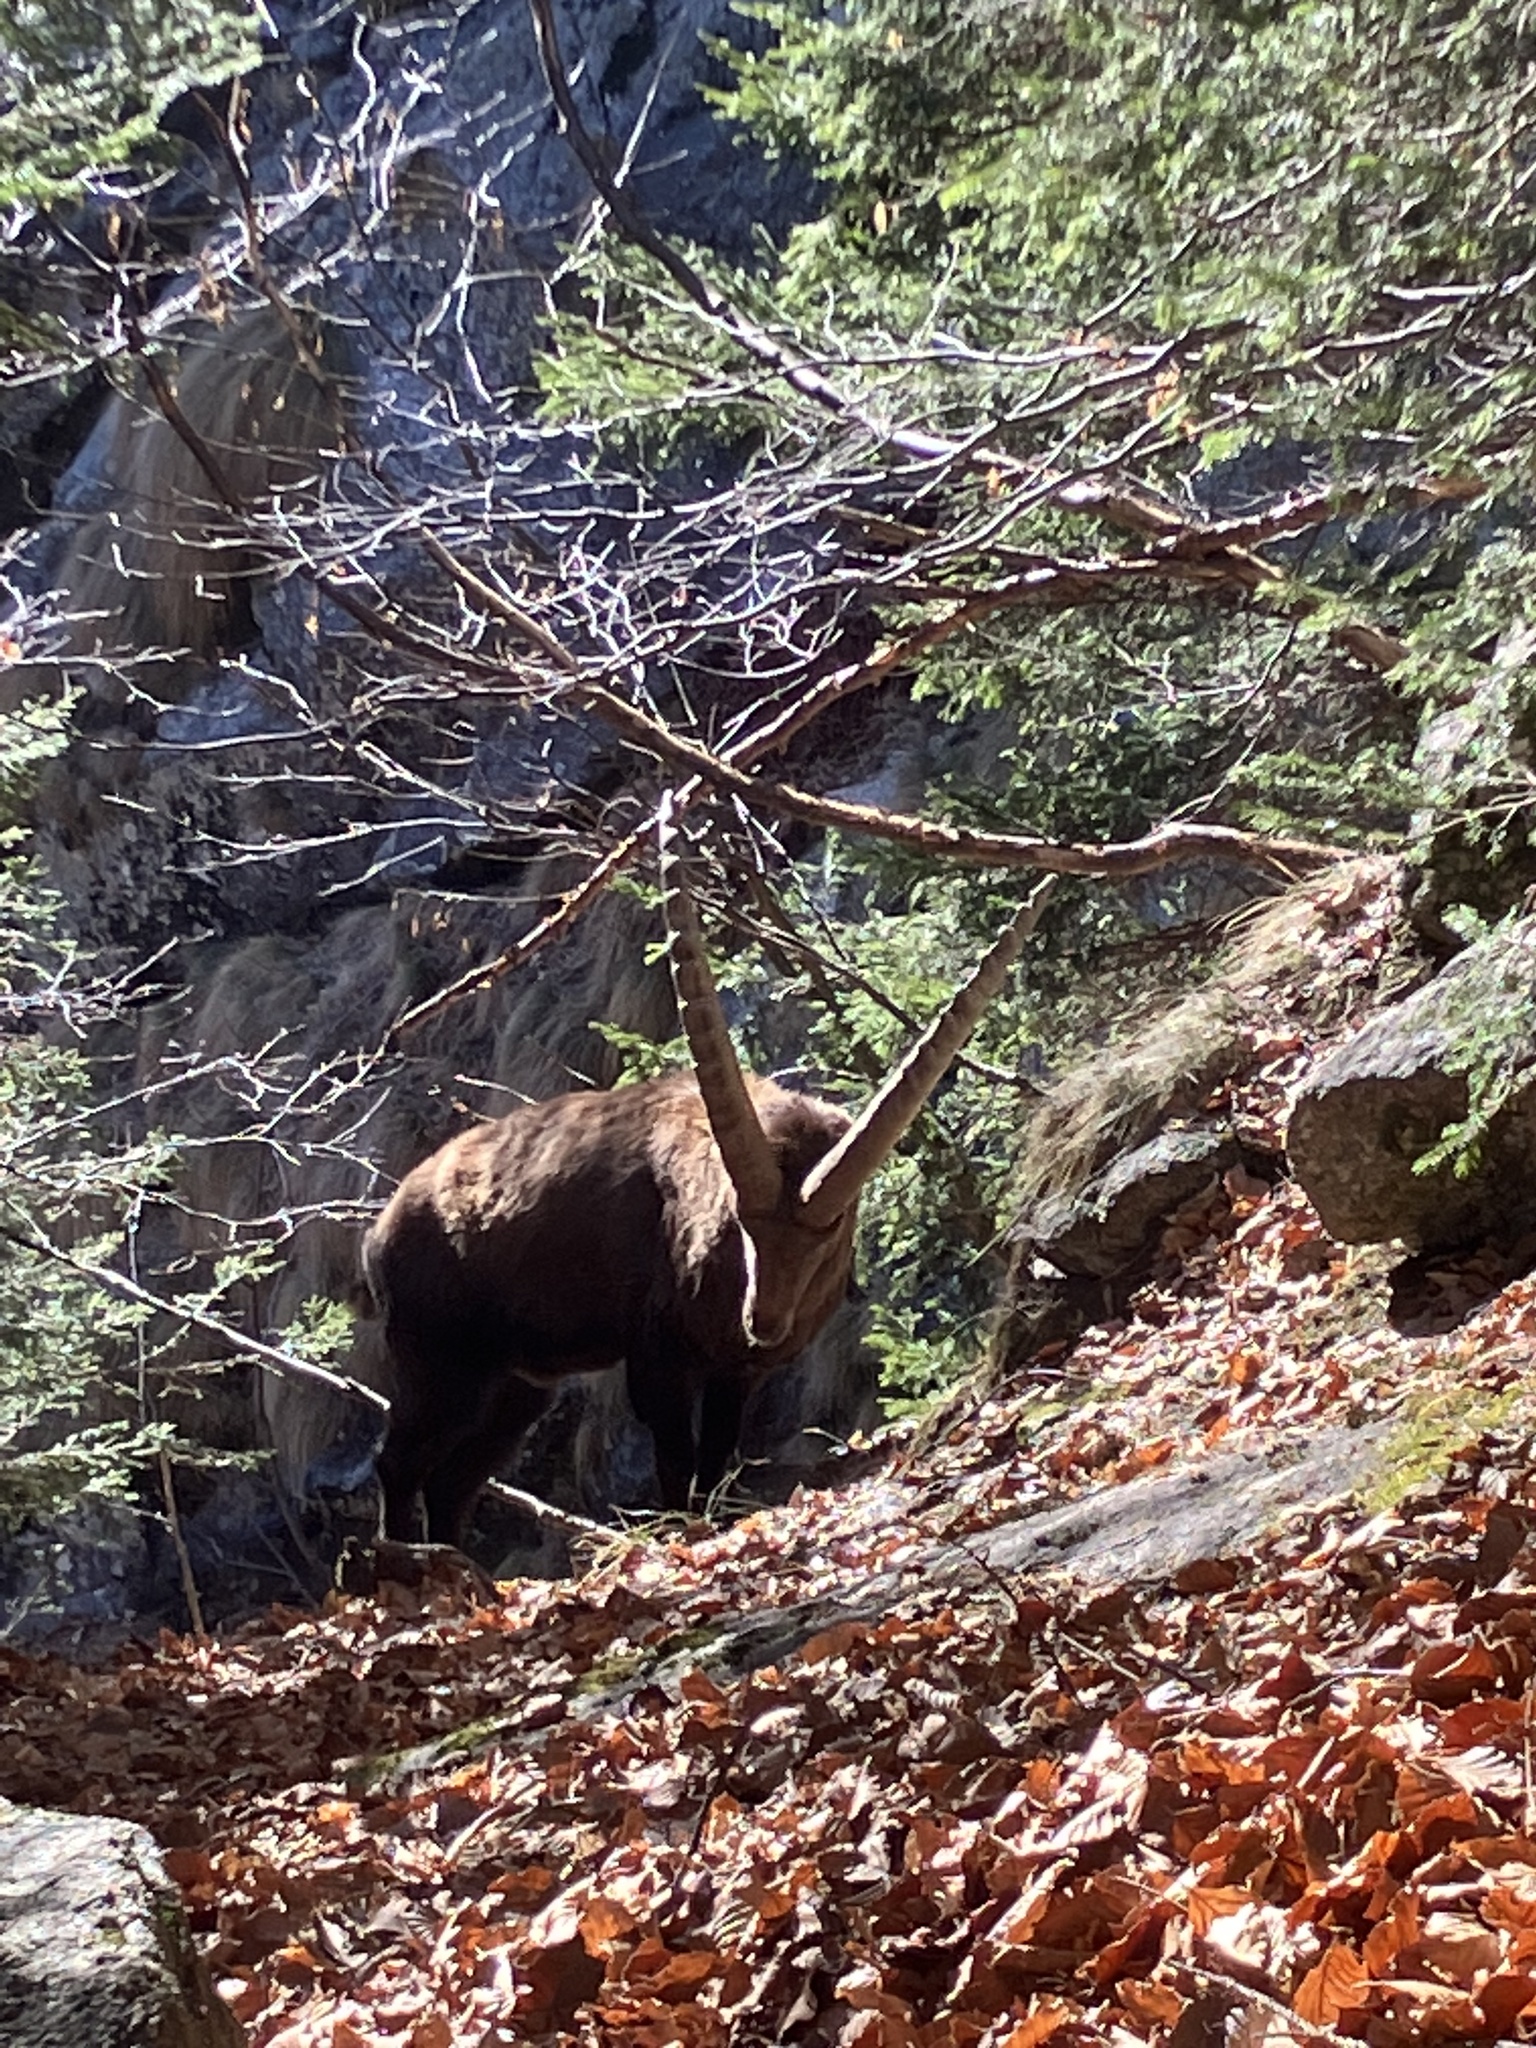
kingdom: Animalia
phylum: Chordata
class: Mammalia
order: Artiodactyla
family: Bovidae
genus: Capra
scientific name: Capra ibex
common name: Alpine ibex
